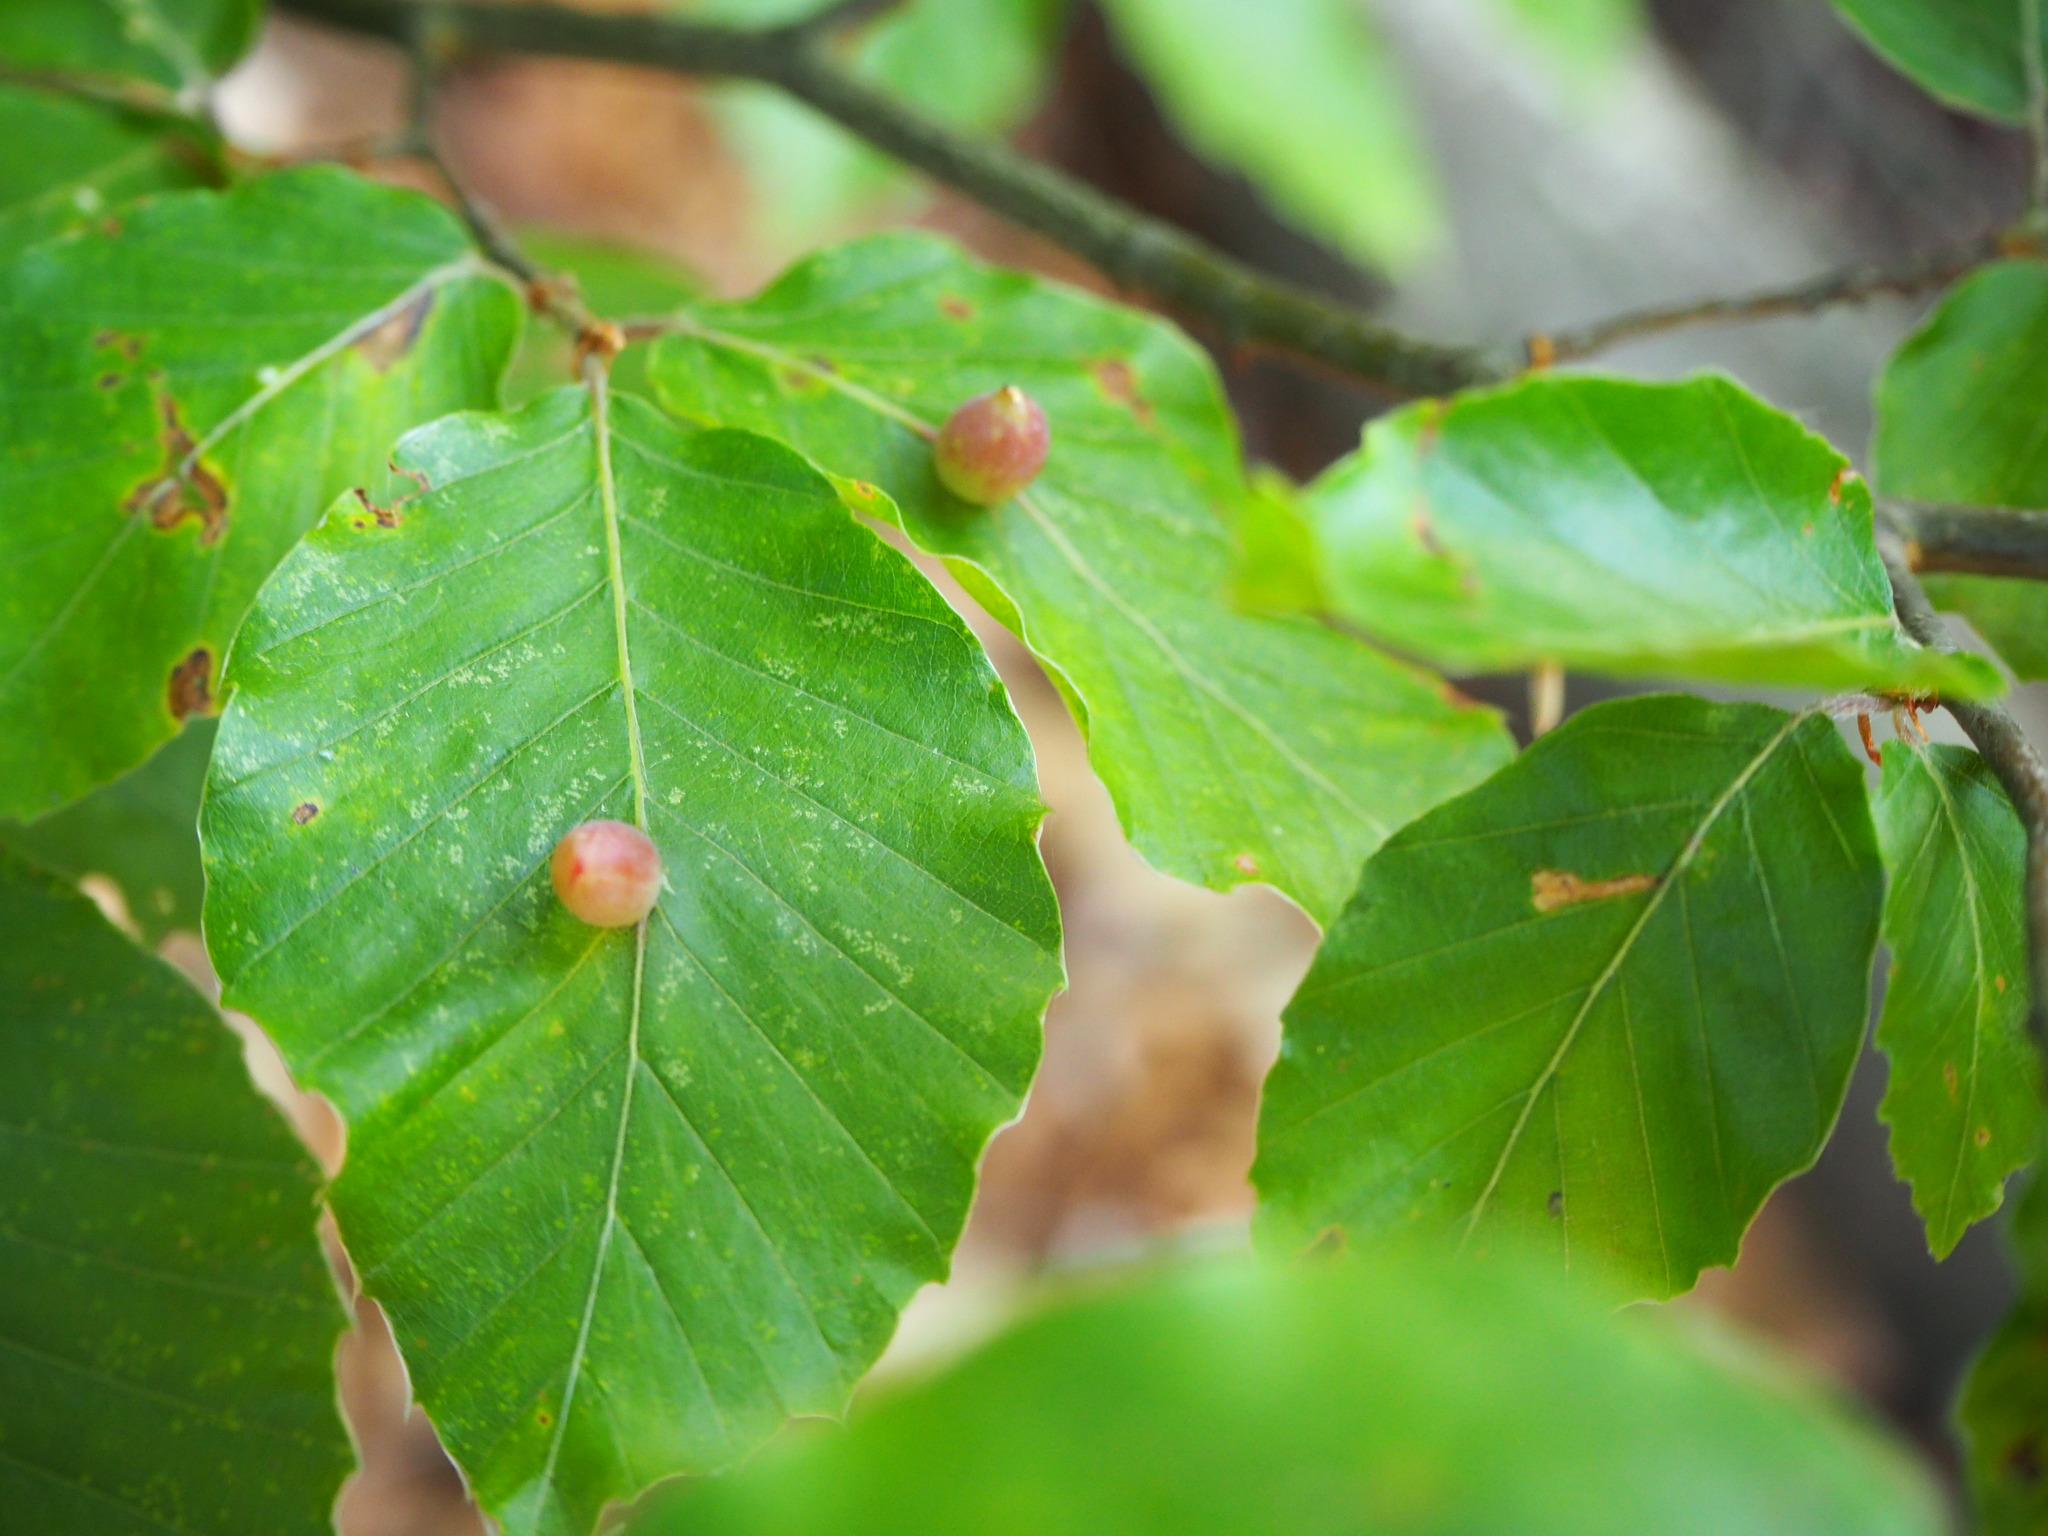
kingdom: Animalia
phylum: Arthropoda
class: Insecta
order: Diptera
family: Cecidomyiidae
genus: Mikiola
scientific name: Mikiola fagi
